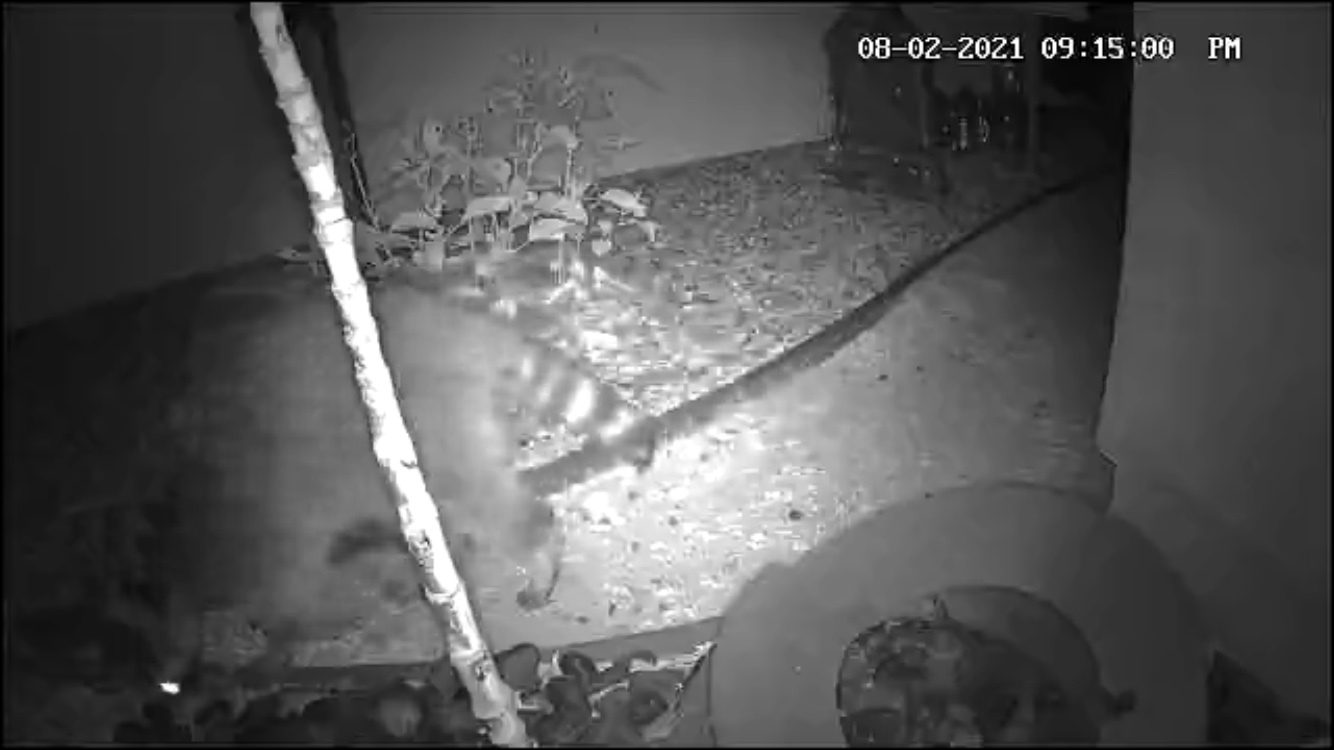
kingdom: Animalia
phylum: Chordata
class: Mammalia
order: Carnivora
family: Procyonidae
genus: Procyon
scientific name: Procyon lotor
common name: Raccoon
